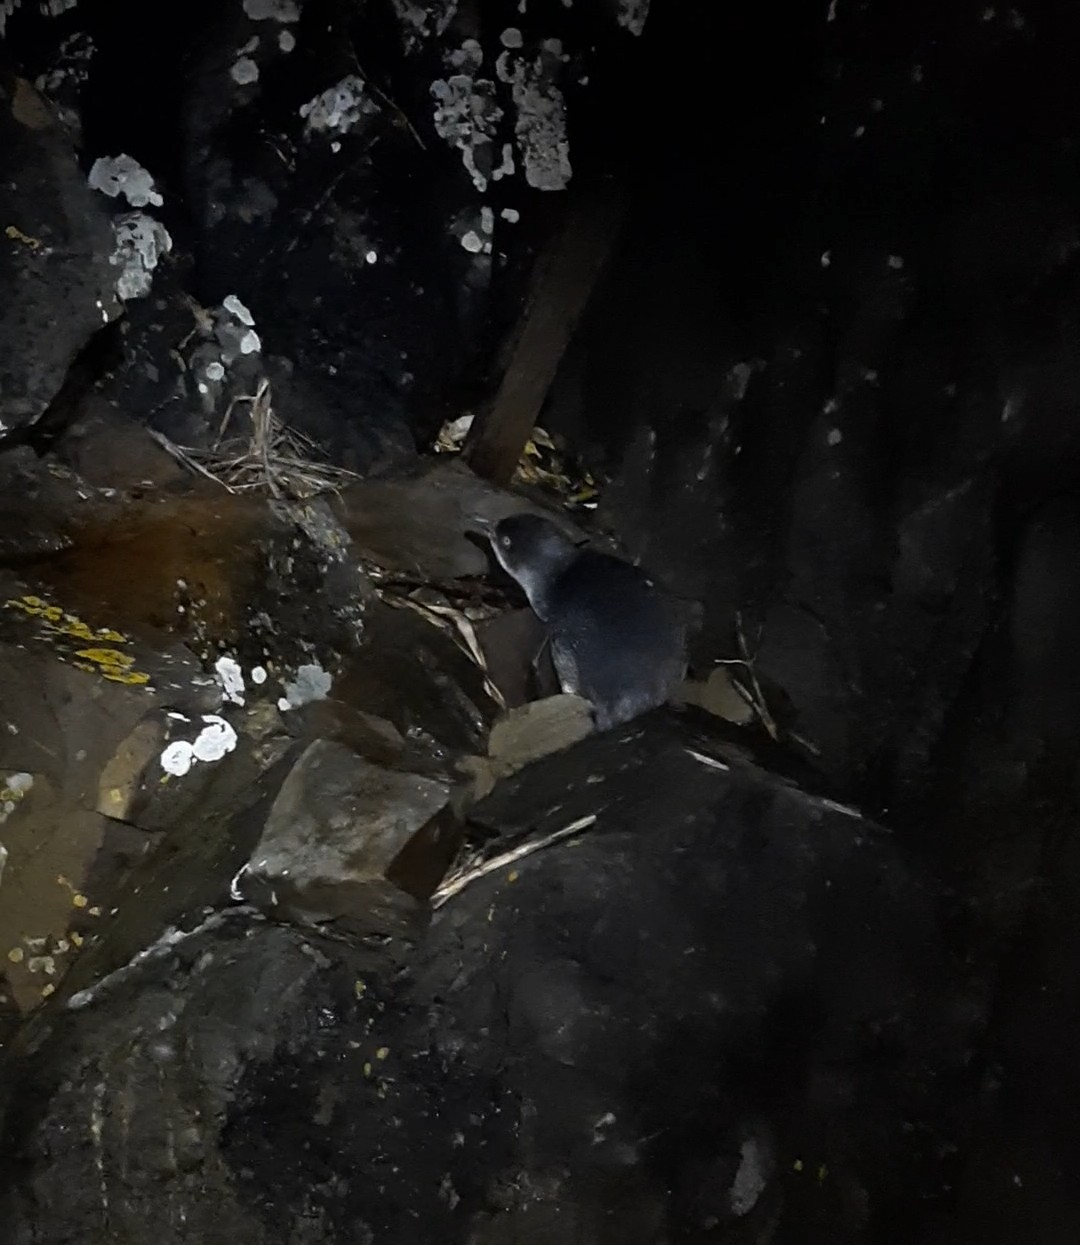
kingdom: Animalia
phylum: Chordata
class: Aves
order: Sphenisciformes
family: Spheniscidae
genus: Eudyptula
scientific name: Eudyptula minor
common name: Little penguin
